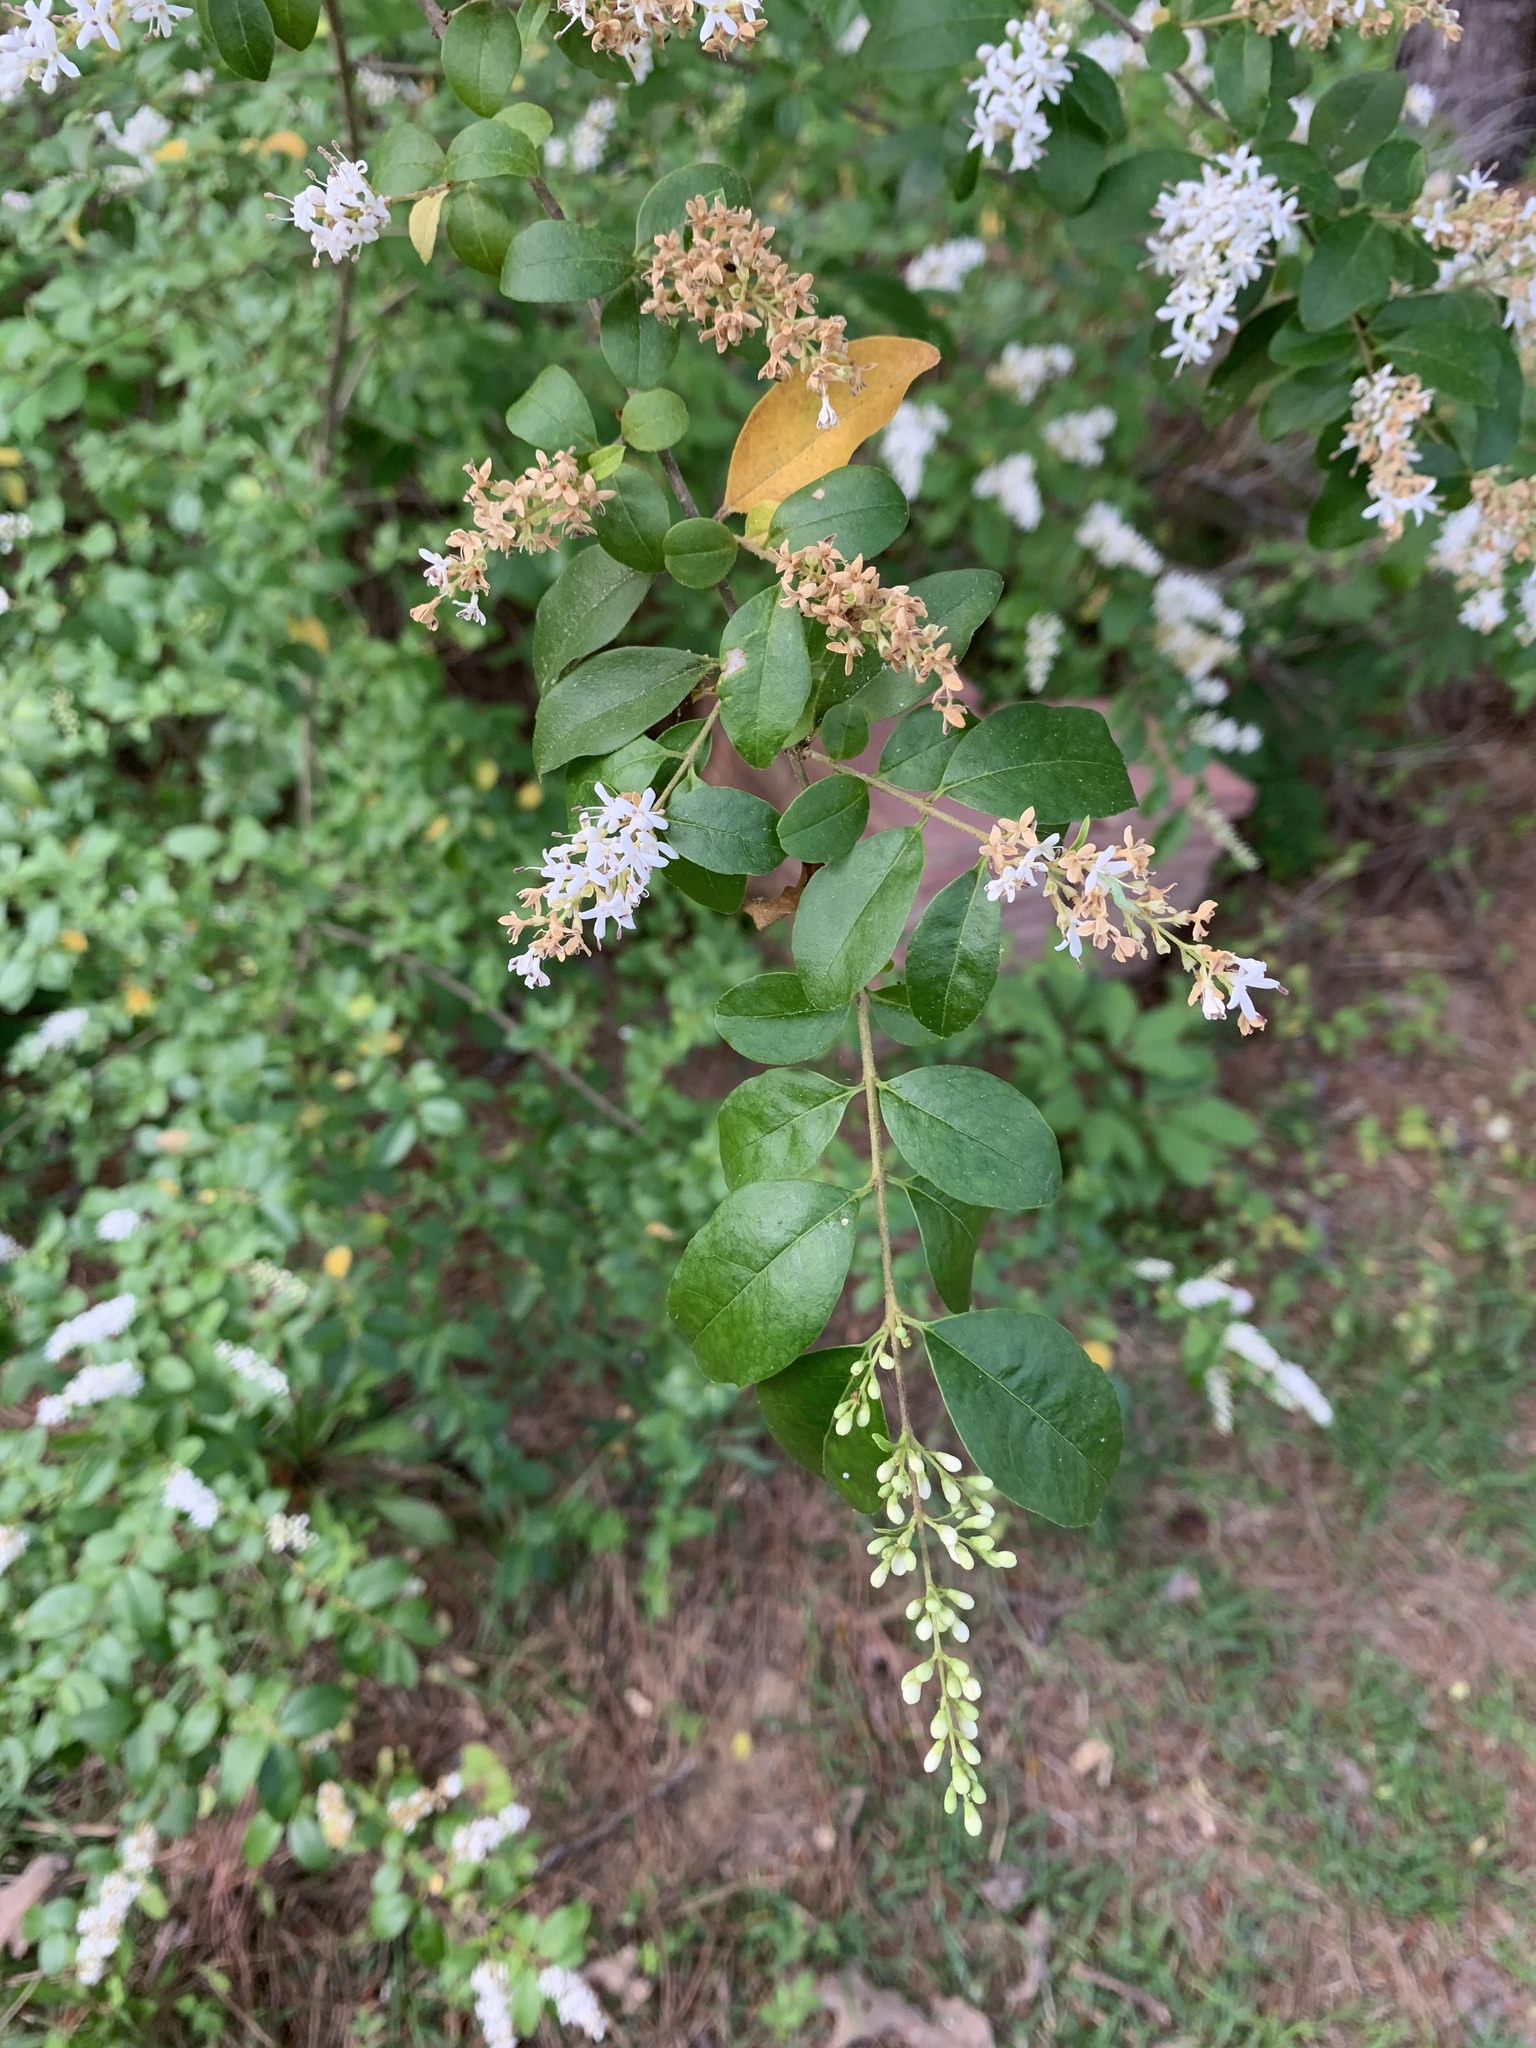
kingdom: Plantae
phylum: Tracheophyta
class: Magnoliopsida
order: Lamiales
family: Oleaceae
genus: Ligustrum
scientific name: Ligustrum sinense
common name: Chinese privet
